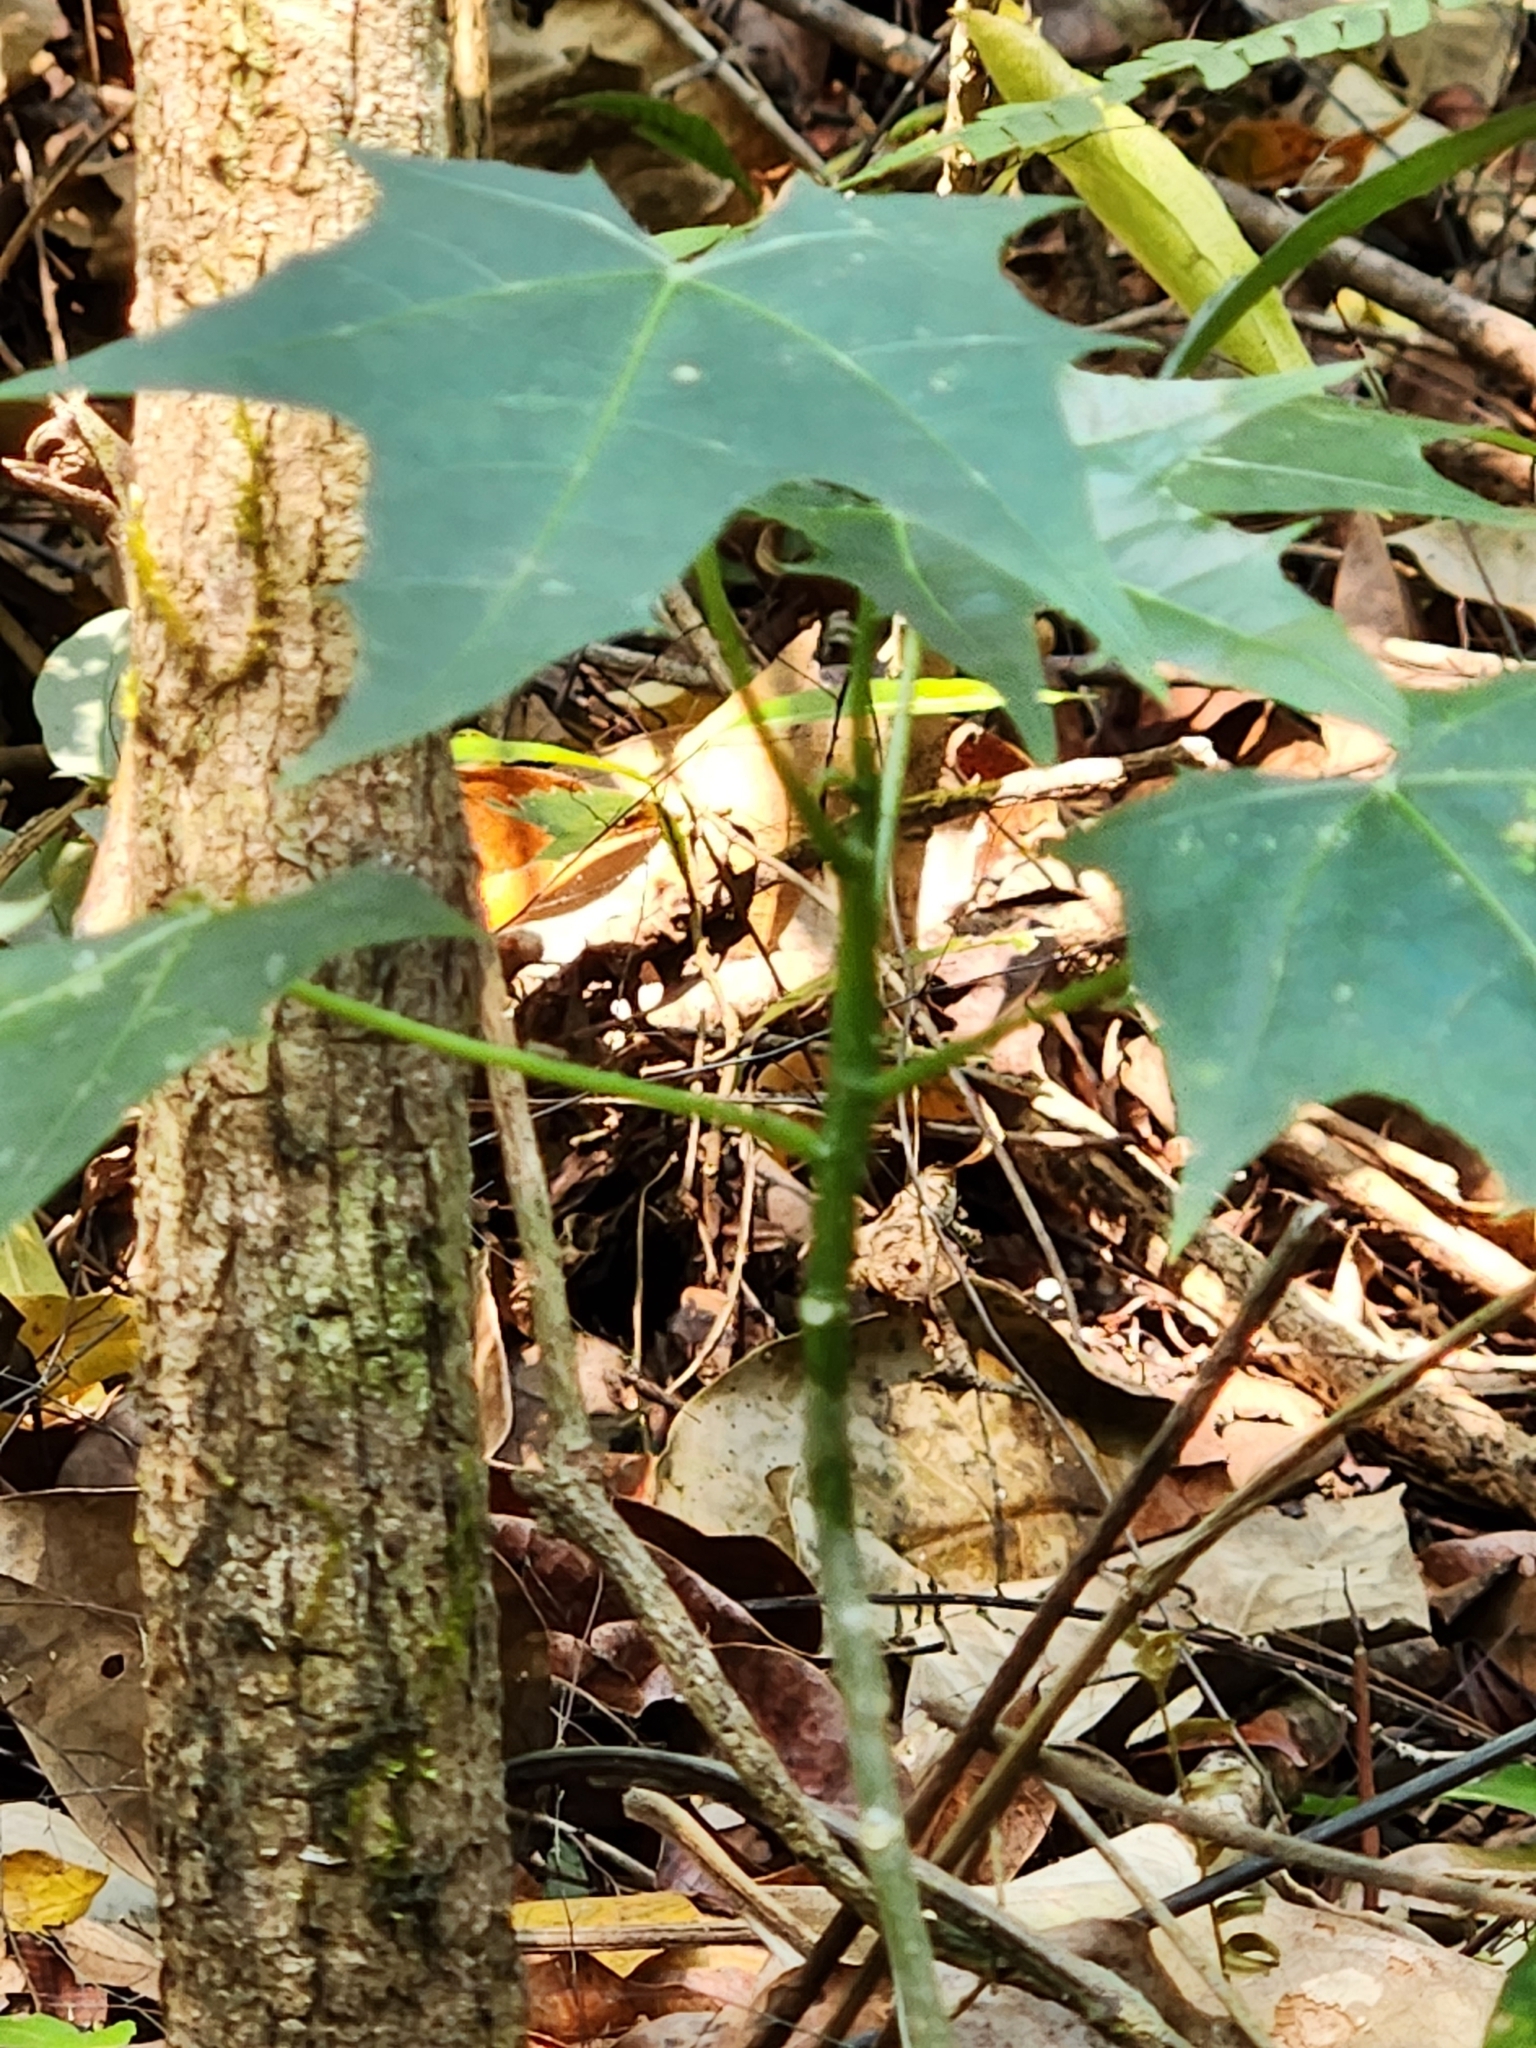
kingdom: Plantae
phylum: Tracheophyta
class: Magnoliopsida
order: Saxifragales
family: Altingiaceae
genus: Liquidambar
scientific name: Liquidambar styraciflua
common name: Sweet gum
